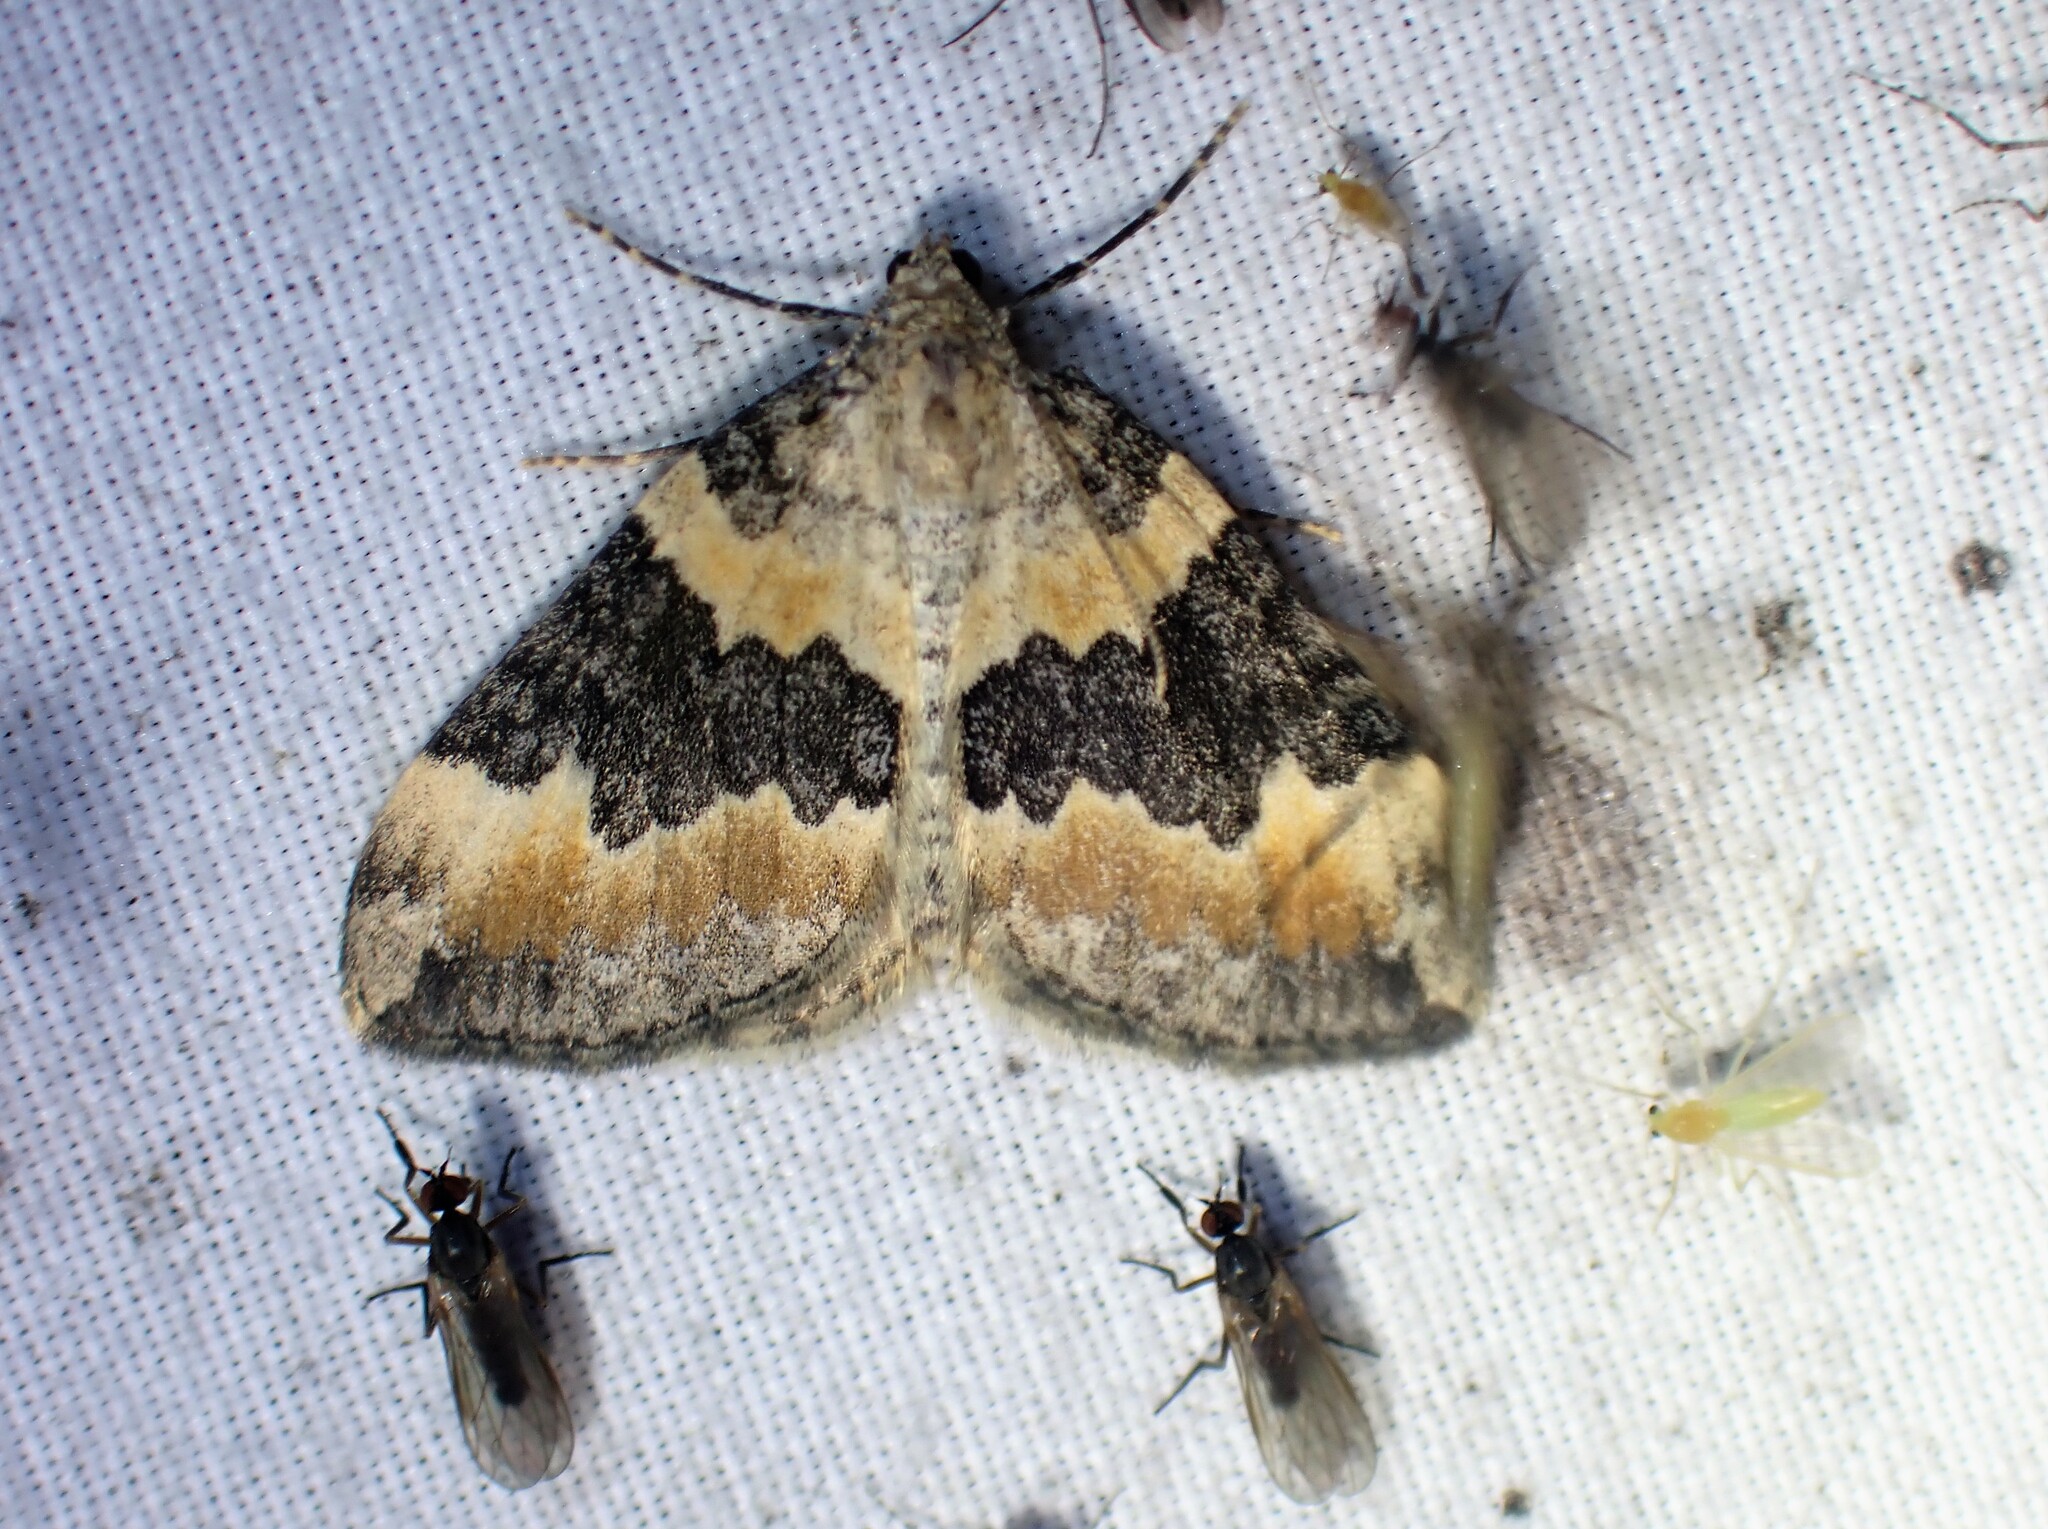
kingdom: Animalia
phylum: Arthropoda
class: Insecta
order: Lepidoptera
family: Geometridae
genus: Dysstroma
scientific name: Dysstroma brunneata
